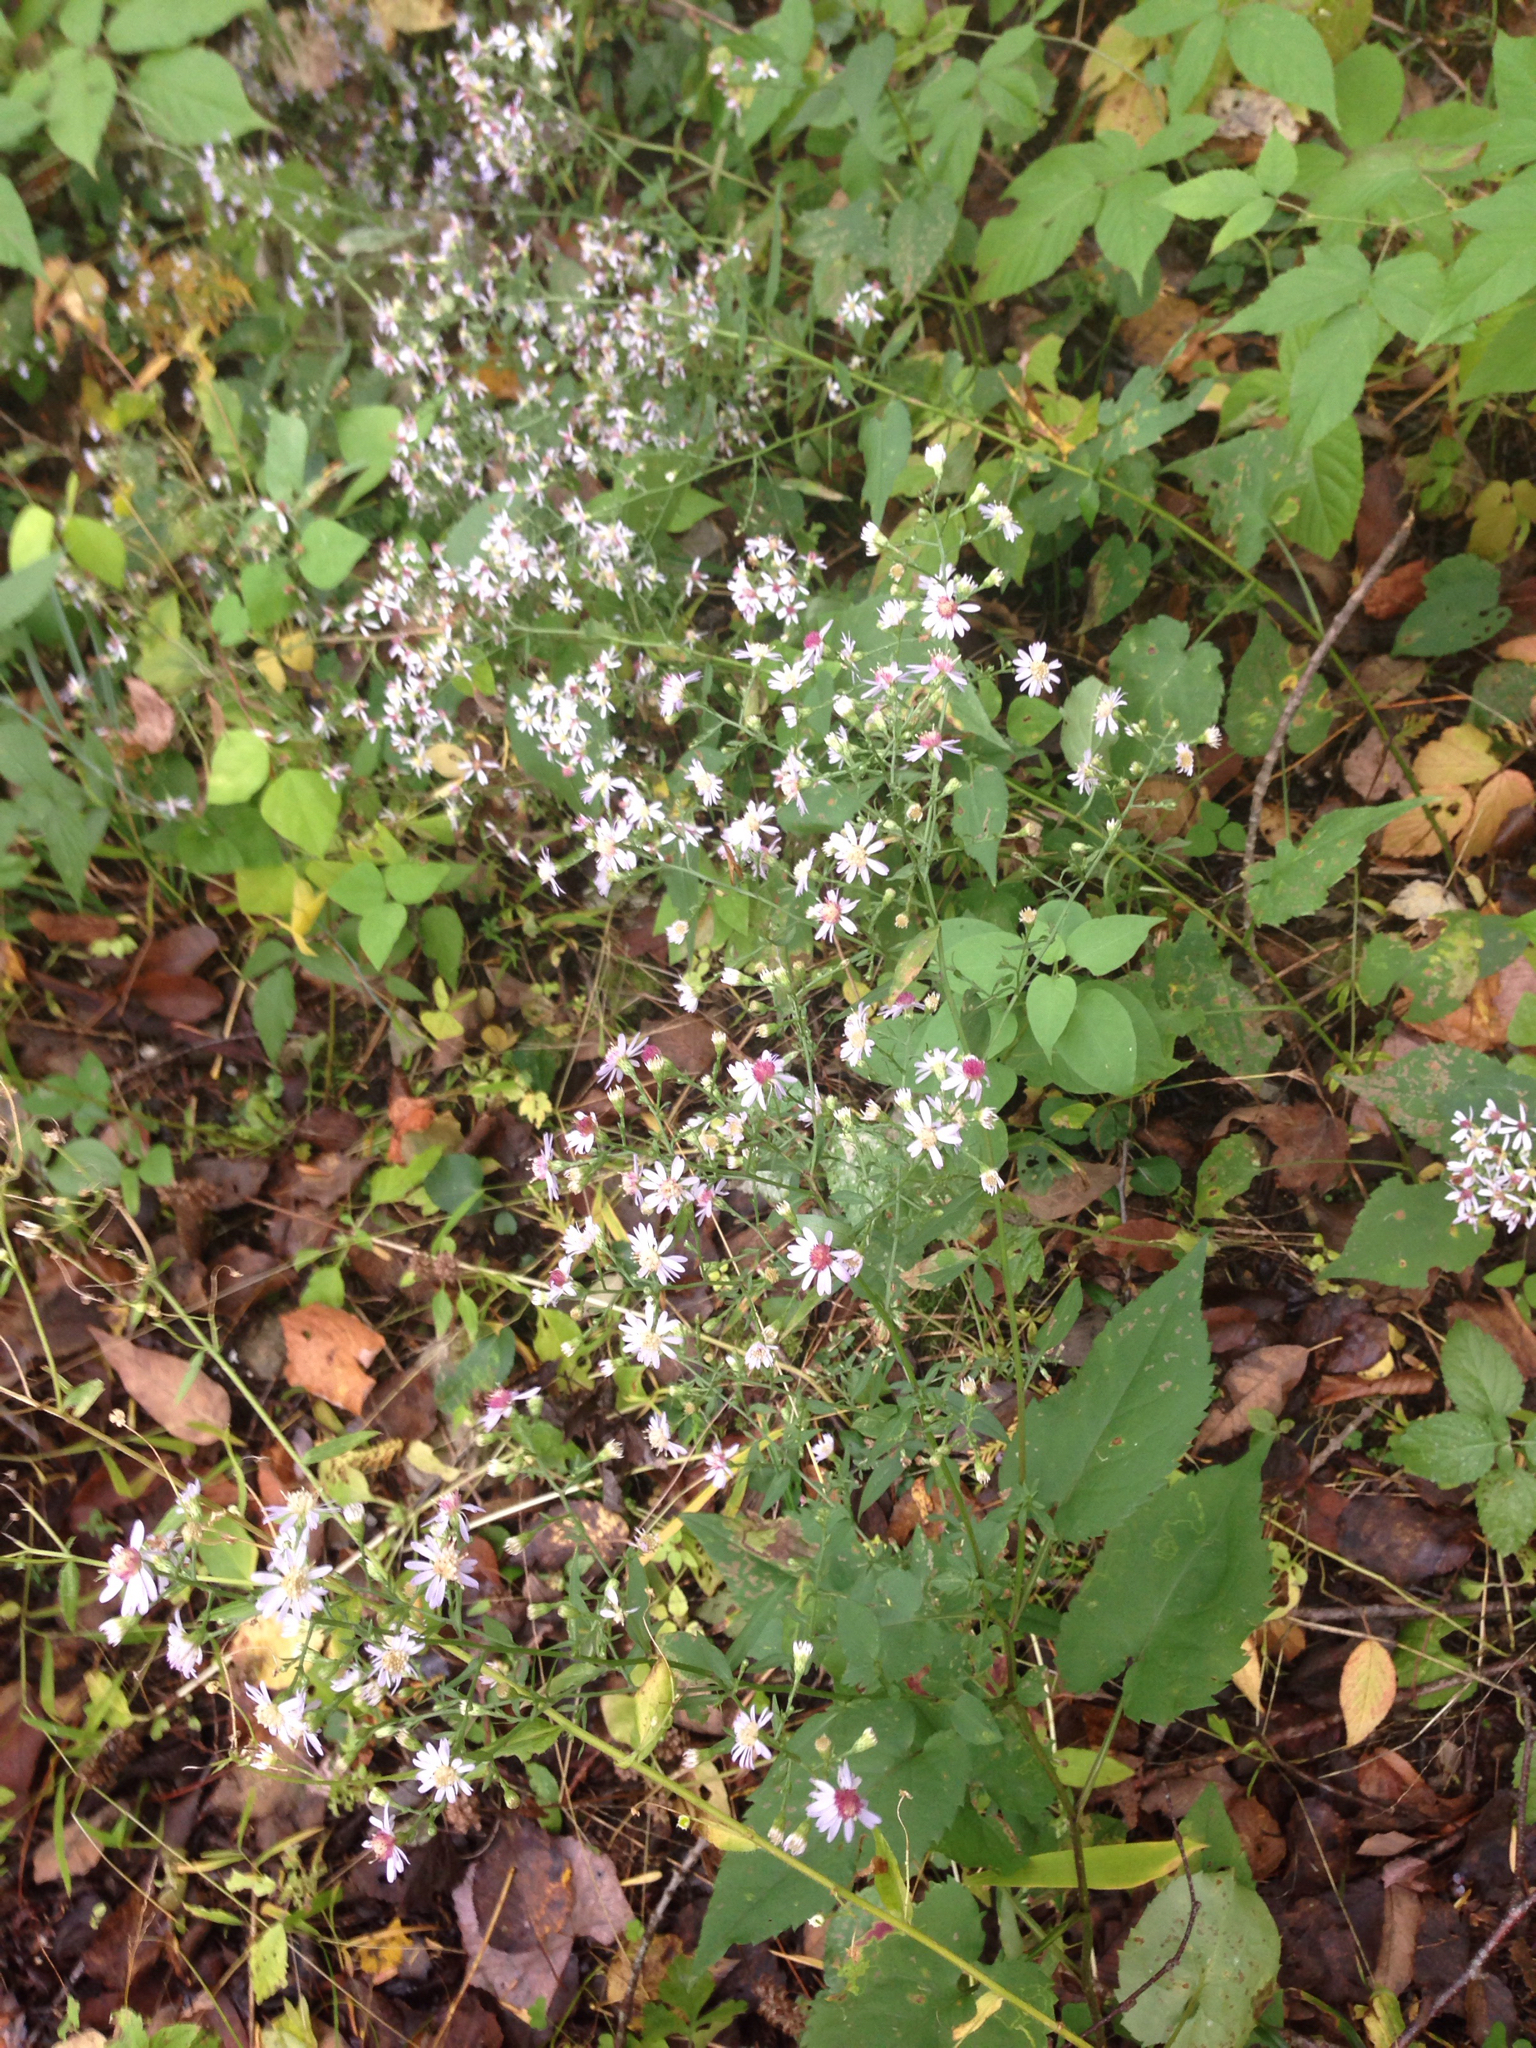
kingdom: Plantae
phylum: Tracheophyta
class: Magnoliopsida
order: Asterales
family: Asteraceae
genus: Symphyotrichum
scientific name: Symphyotrichum cordifolium
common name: Beeweed
